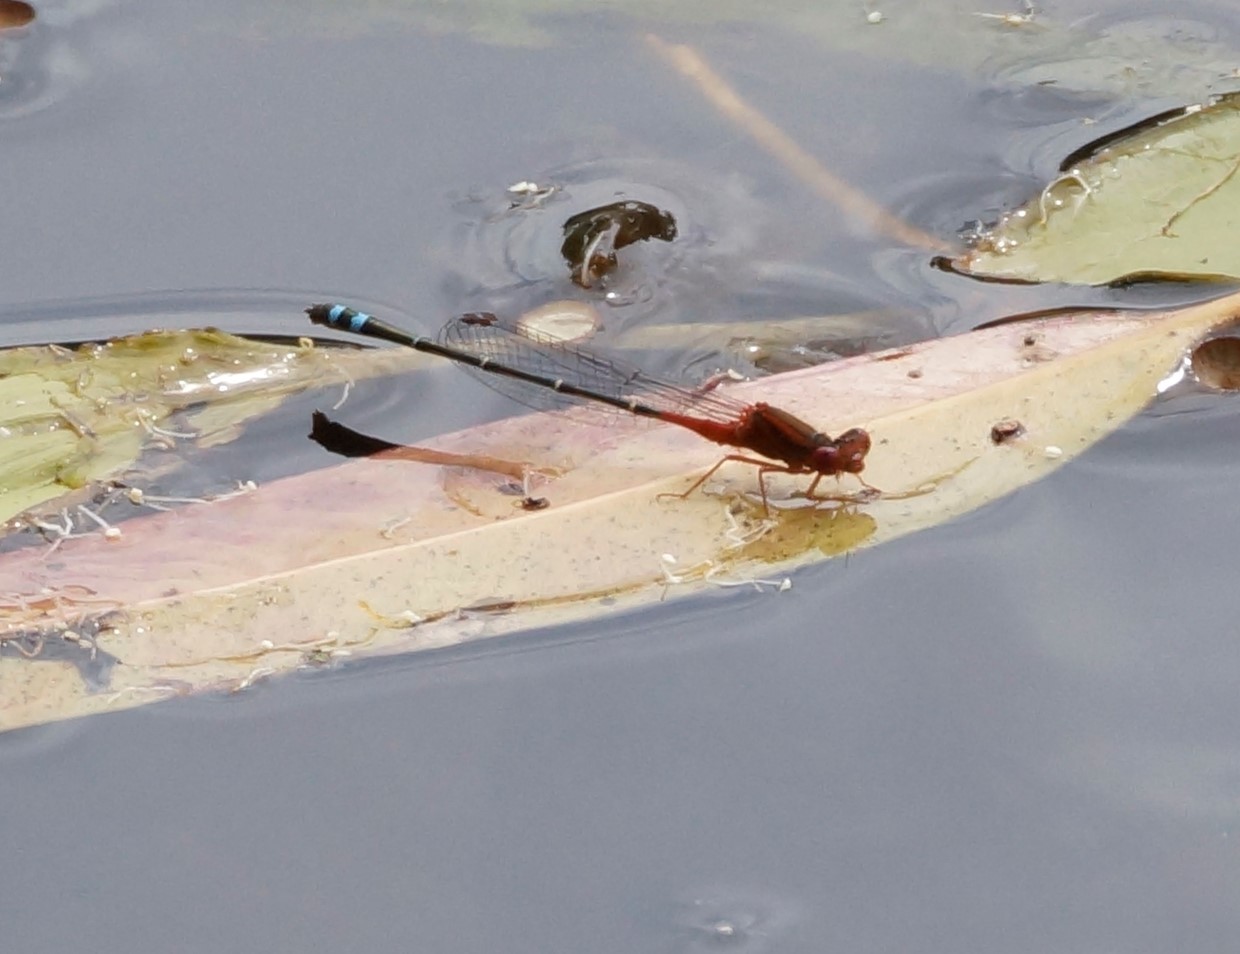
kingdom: Animalia
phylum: Arthropoda
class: Insecta
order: Odonata
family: Coenagrionidae
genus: Xanthagrion
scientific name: Xanthagrion erythroneurum
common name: Red and blue damsel
